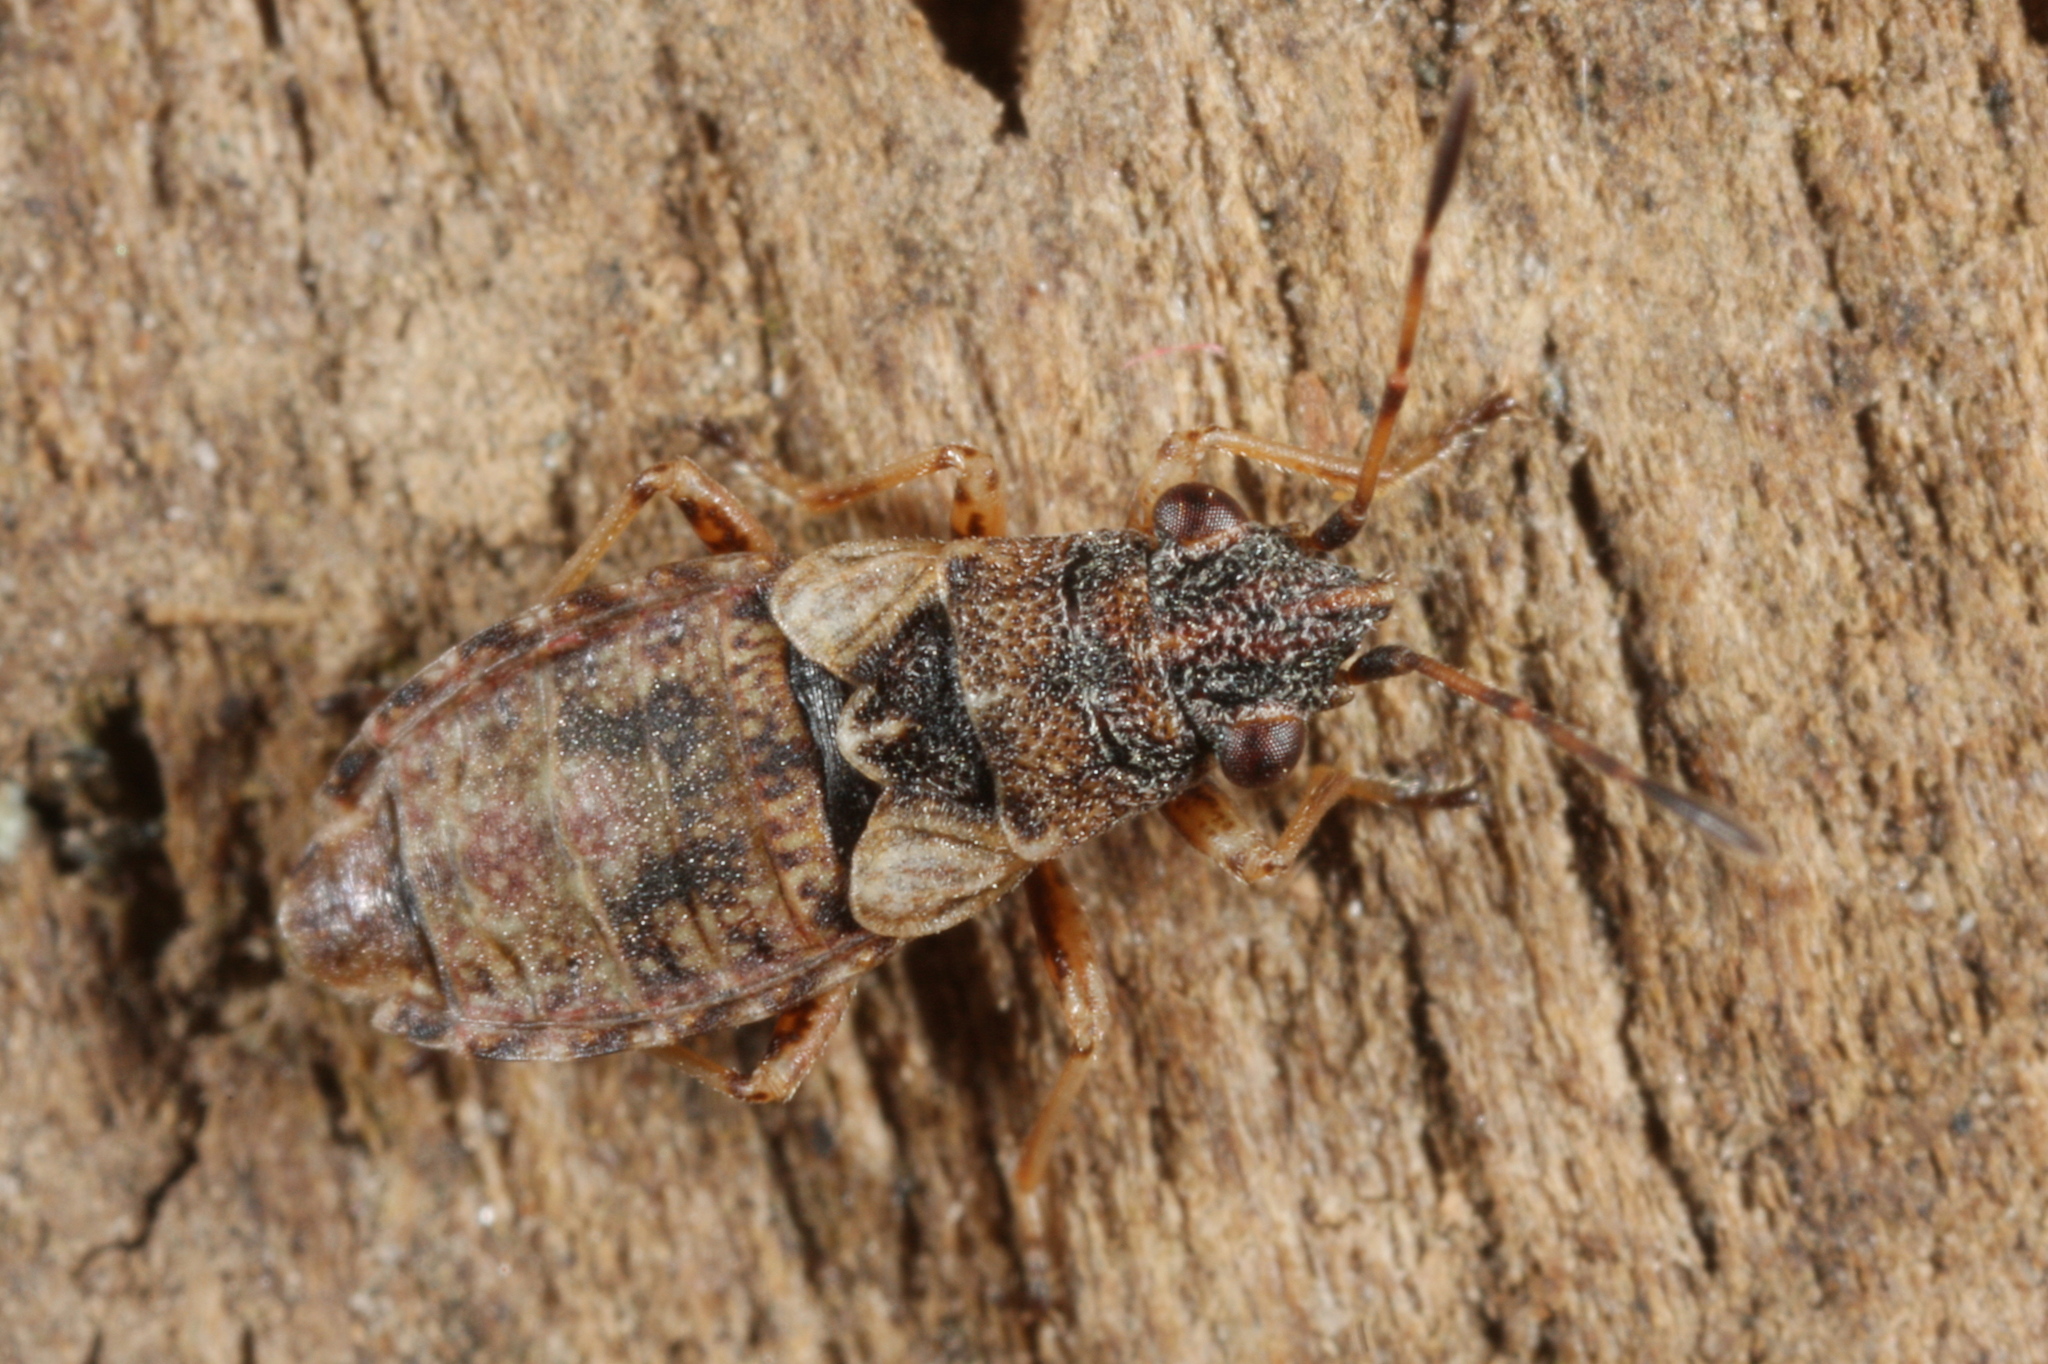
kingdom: Animalia
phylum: Arthropoda
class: Insecta
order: Hemiptera
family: Lygaeidae
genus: Nithecus
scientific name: Nithecus jacobaeae
